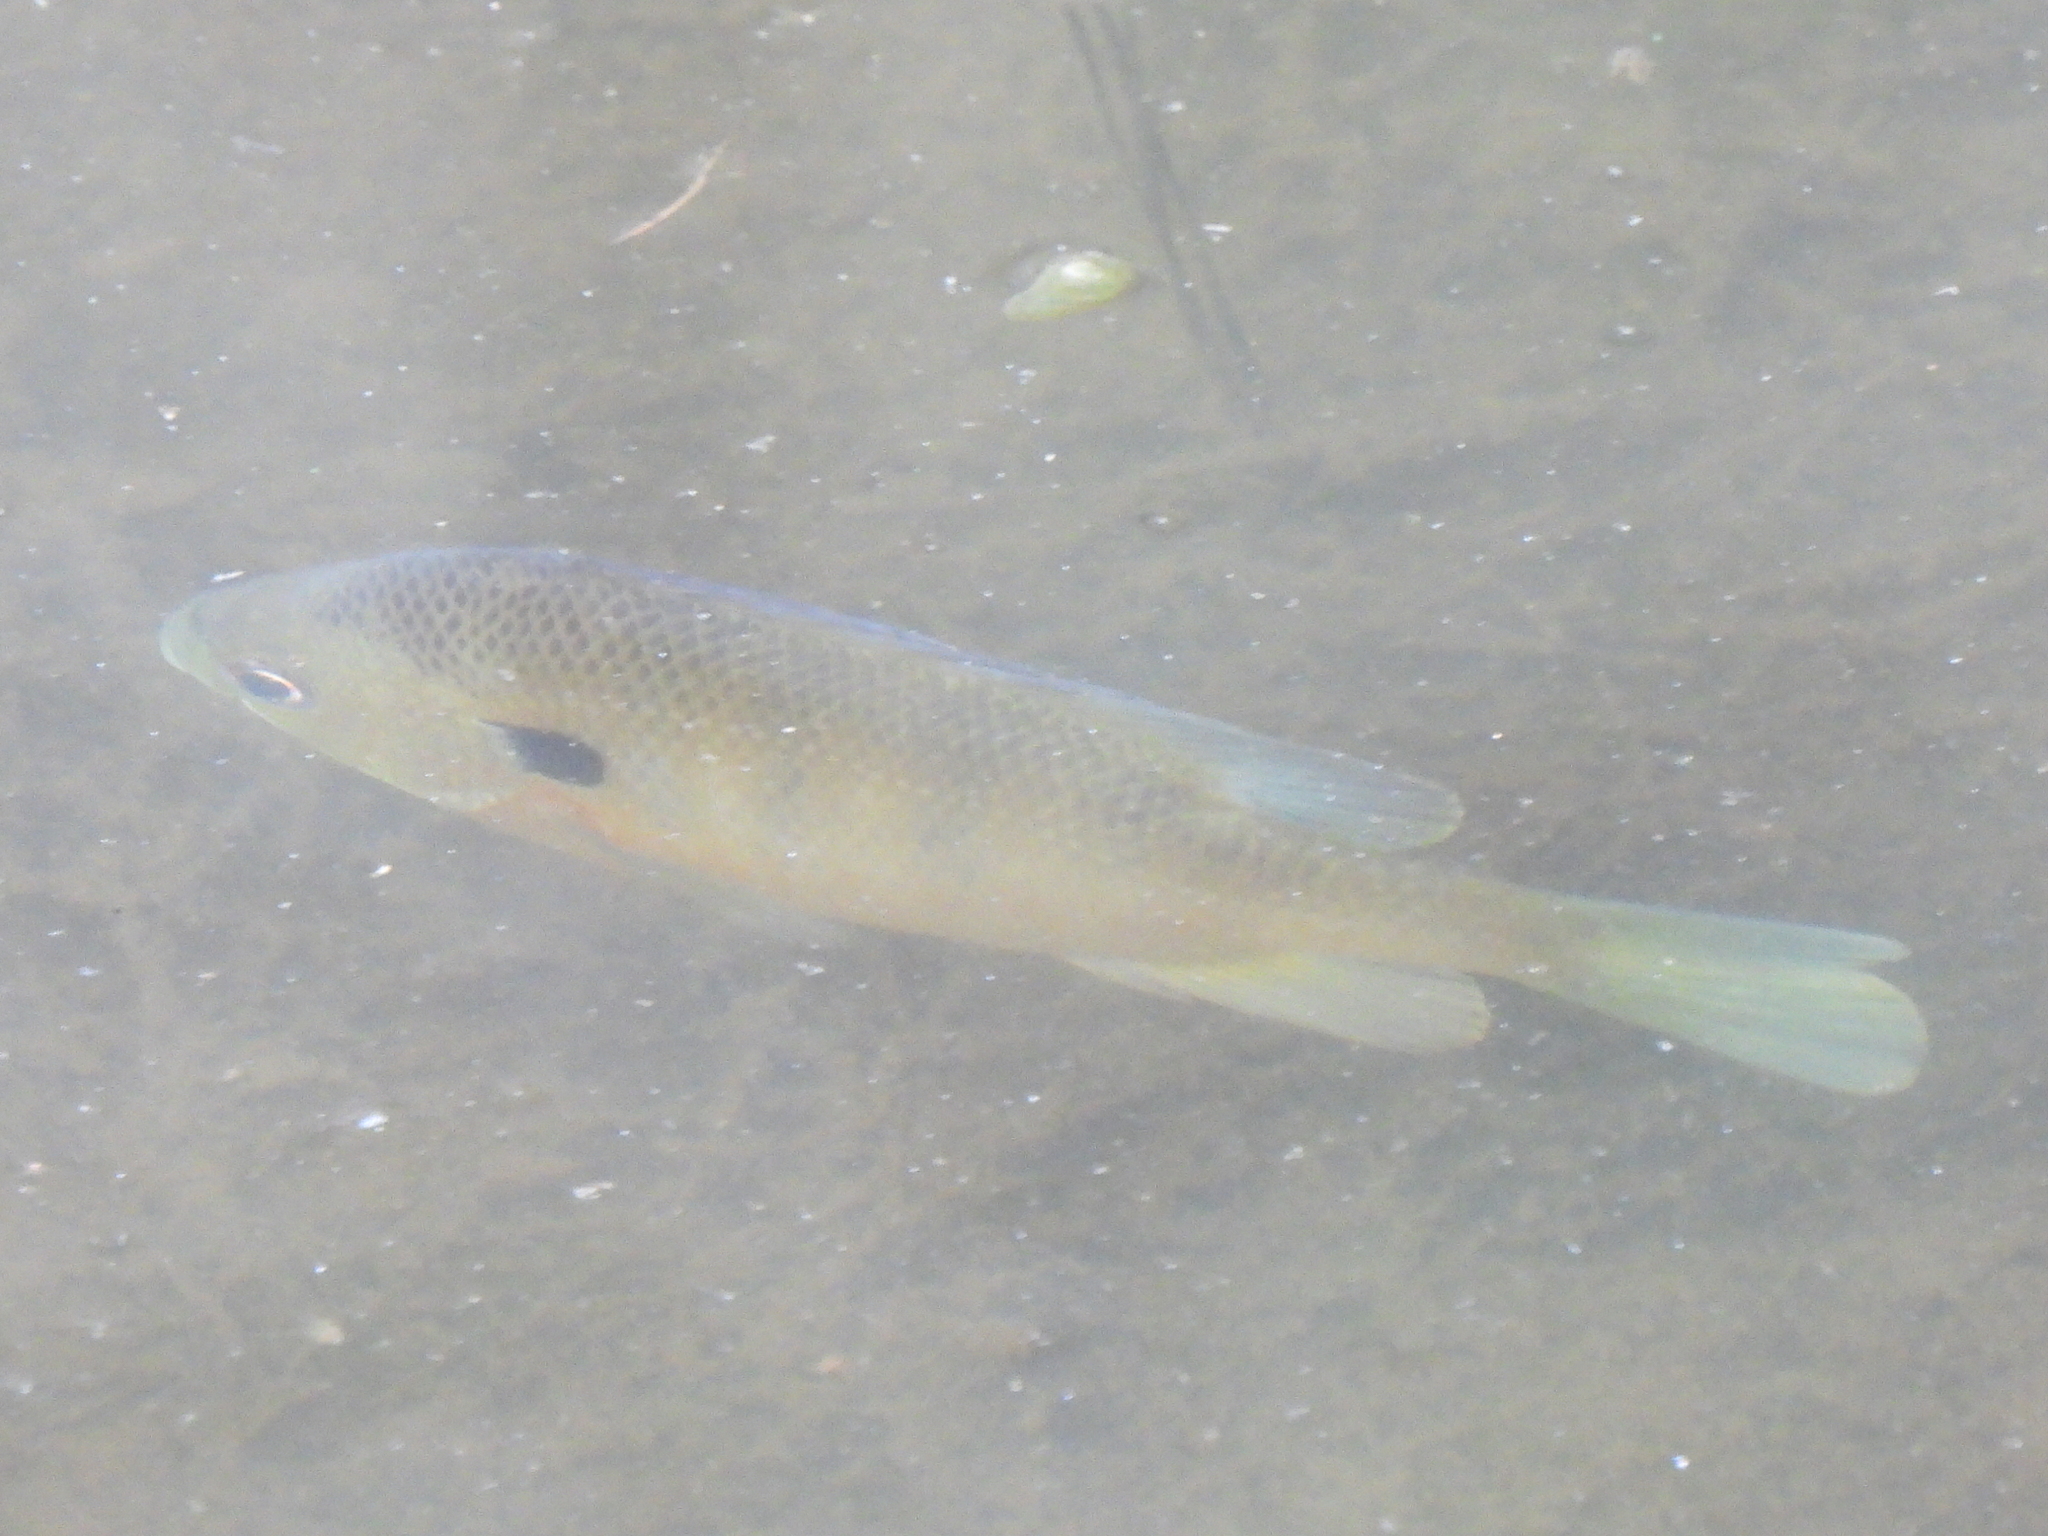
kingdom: Animalia
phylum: Chordata
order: Perciformes
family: Centrarchidae
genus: Lepomis
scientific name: Lepomis macrochirus
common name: Bluegill
